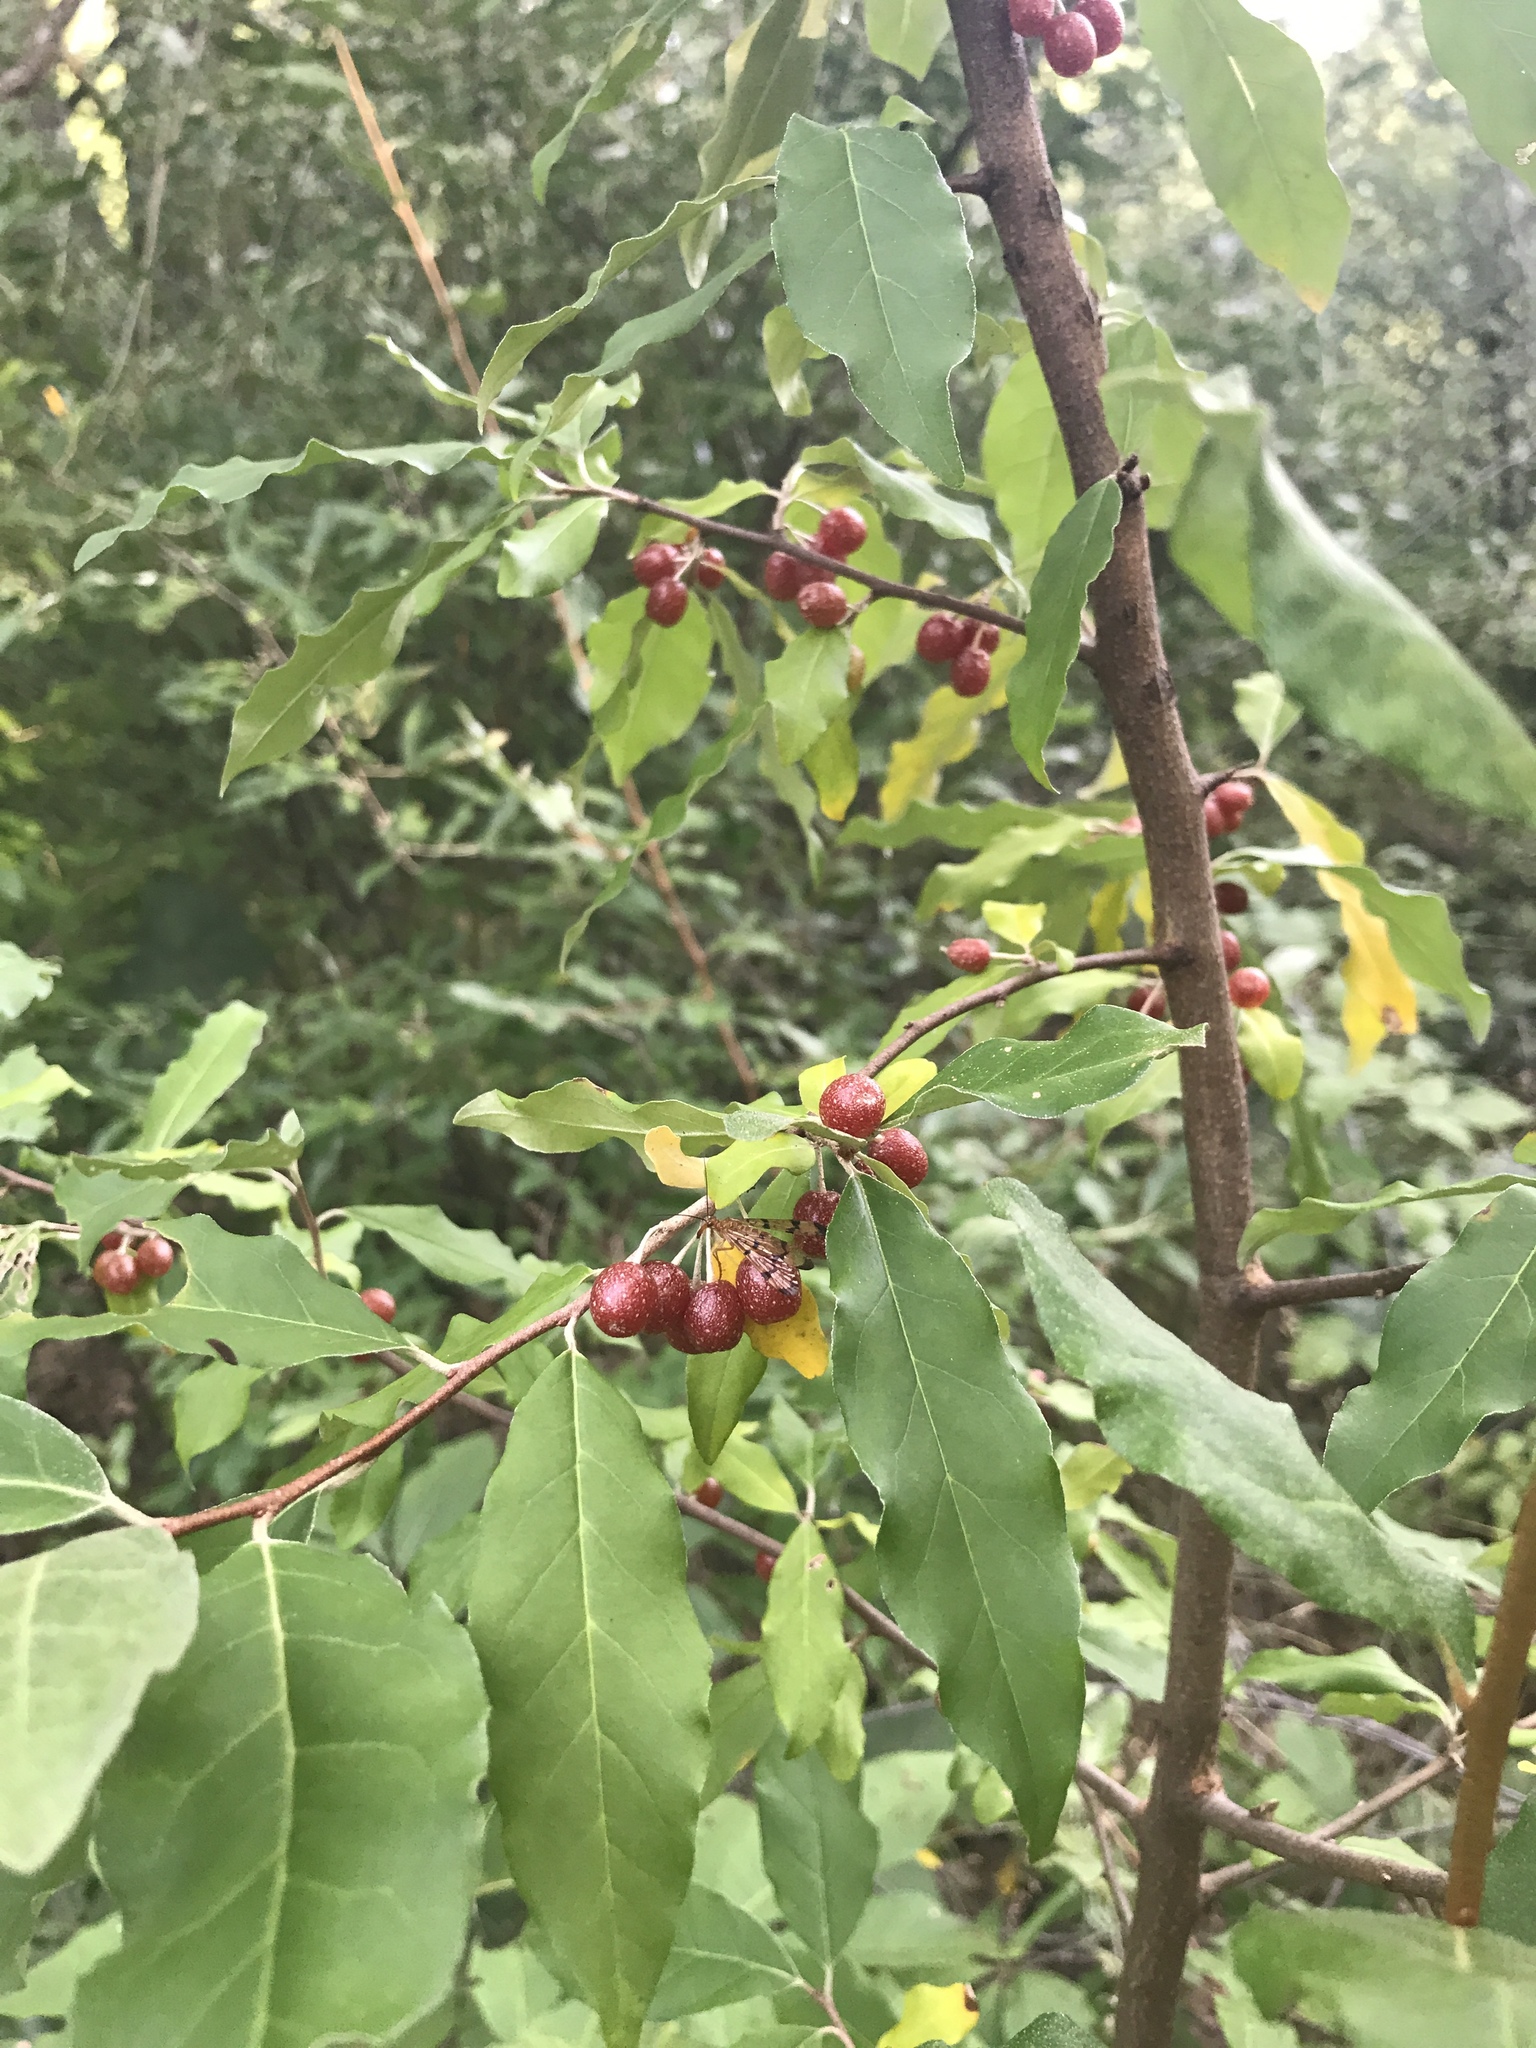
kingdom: Plantae
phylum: Tracheophyta
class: Magnoliopsida
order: Rosales
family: Elaeagnaceae
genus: Elaeagnus
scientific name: Elaeagnus umbellata
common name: Autumn olive
